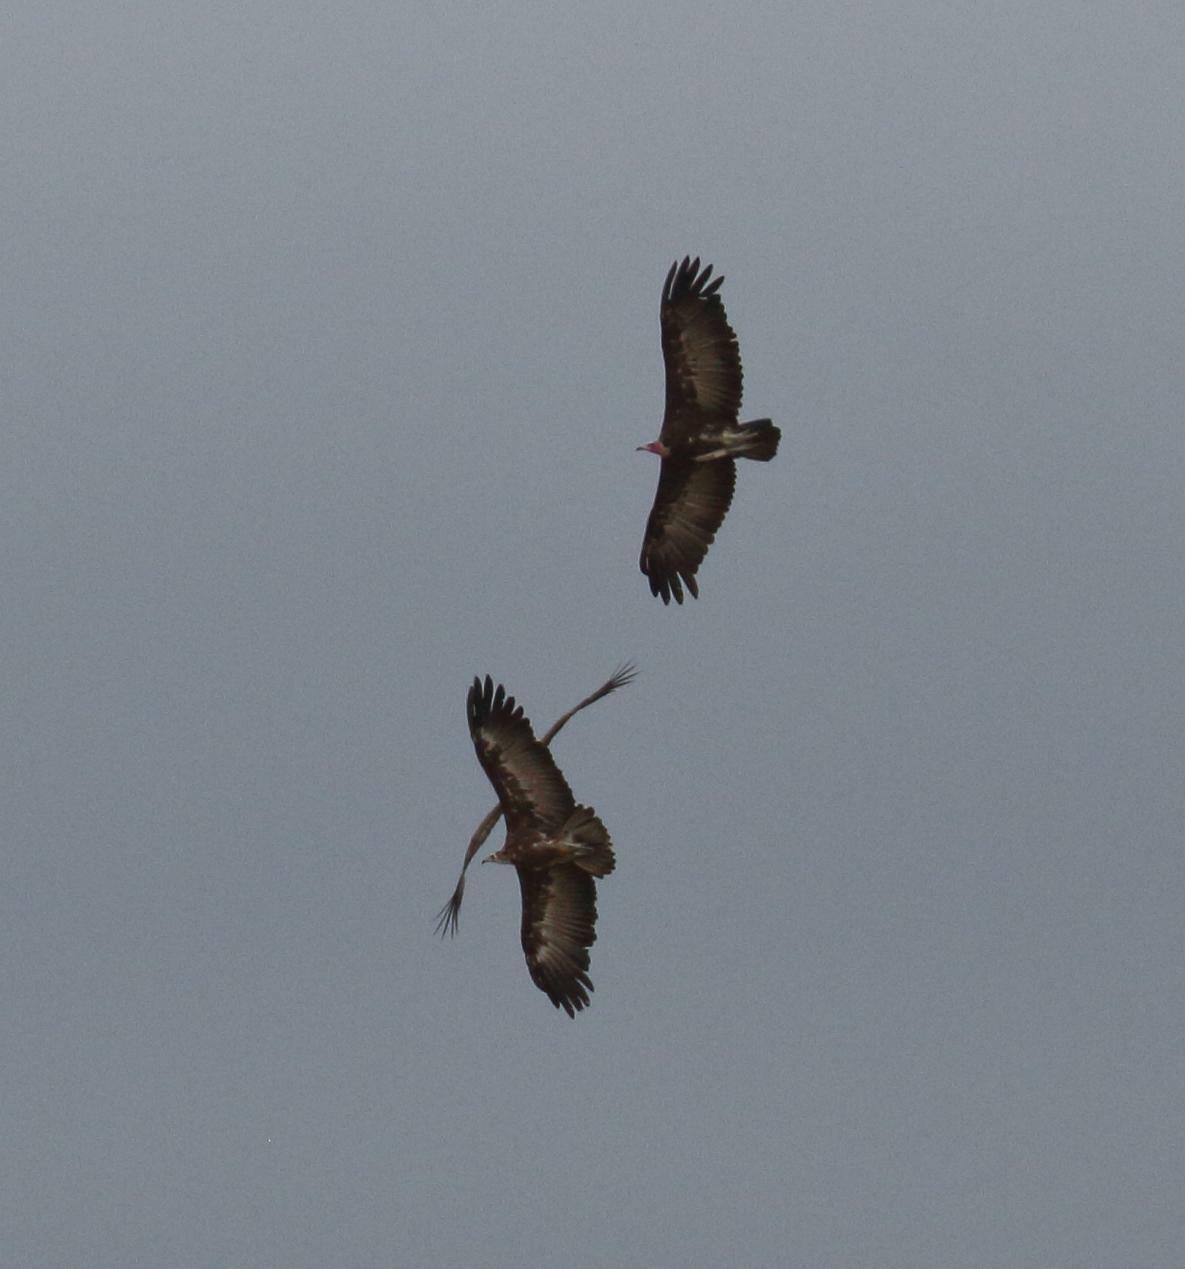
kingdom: Animalia
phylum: Chordata
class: Aves
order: Accipitriformes
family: Accipitridae
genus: Necrosyrtes
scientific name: Necrosyrtes monachus
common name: Hooded vulture
